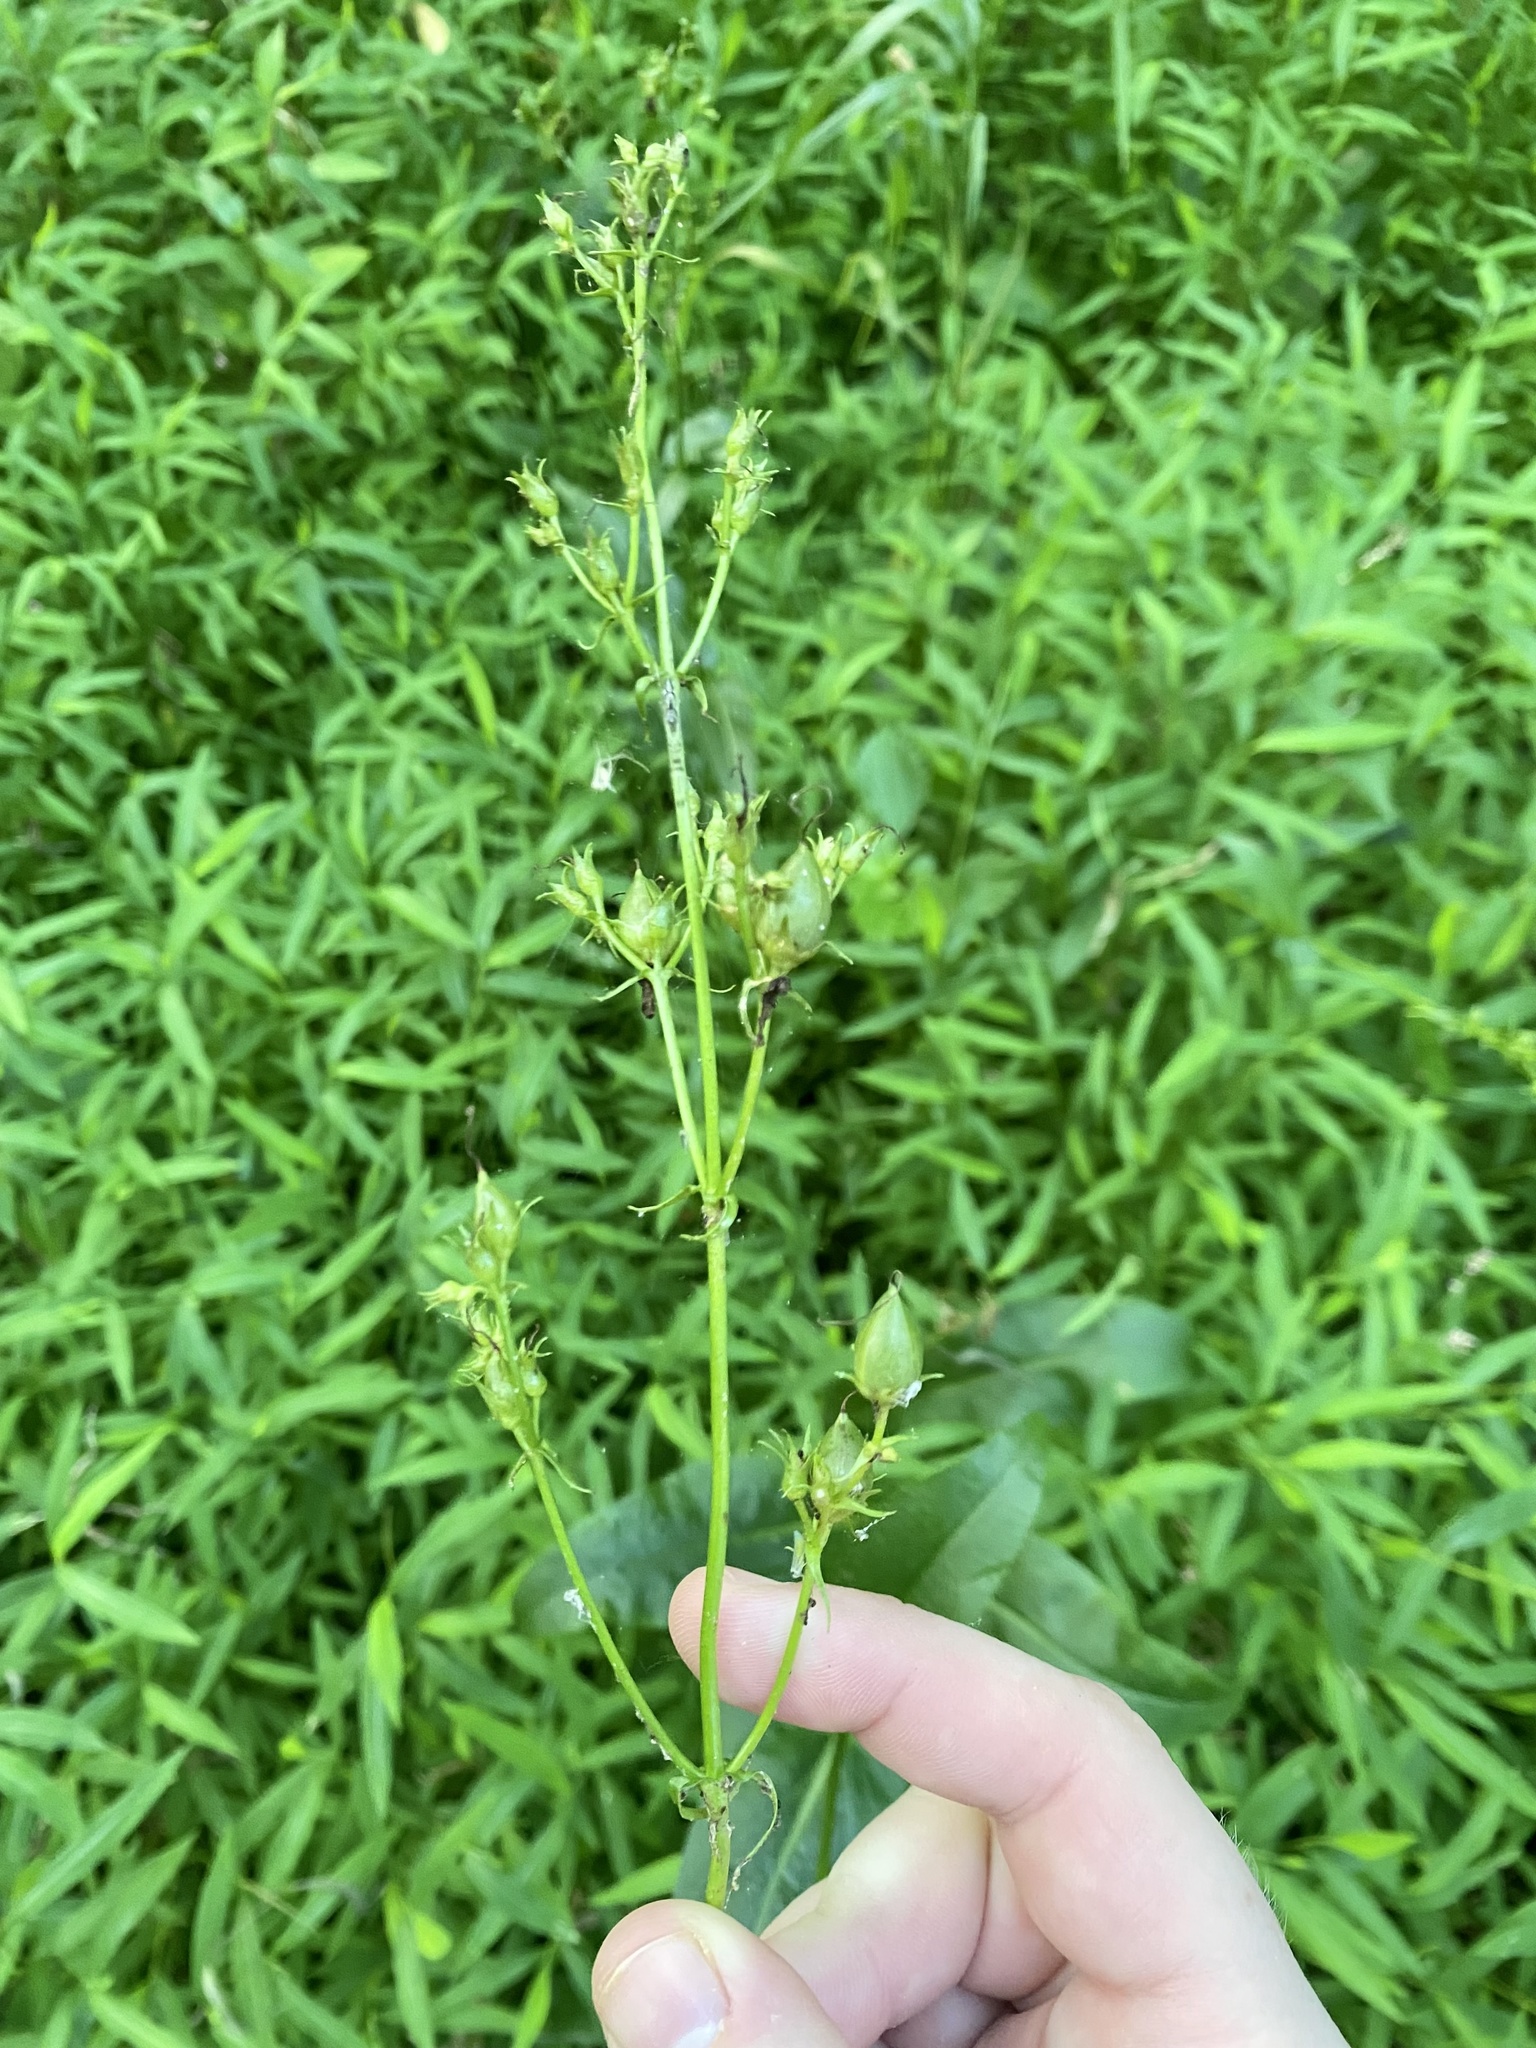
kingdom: Plantae
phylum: Tracheophyta
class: Magnoliopsida
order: Lamiales
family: Plantaginaceae
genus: Penstemon
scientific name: Penstemon digitalis
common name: Foxglove beardtongue
